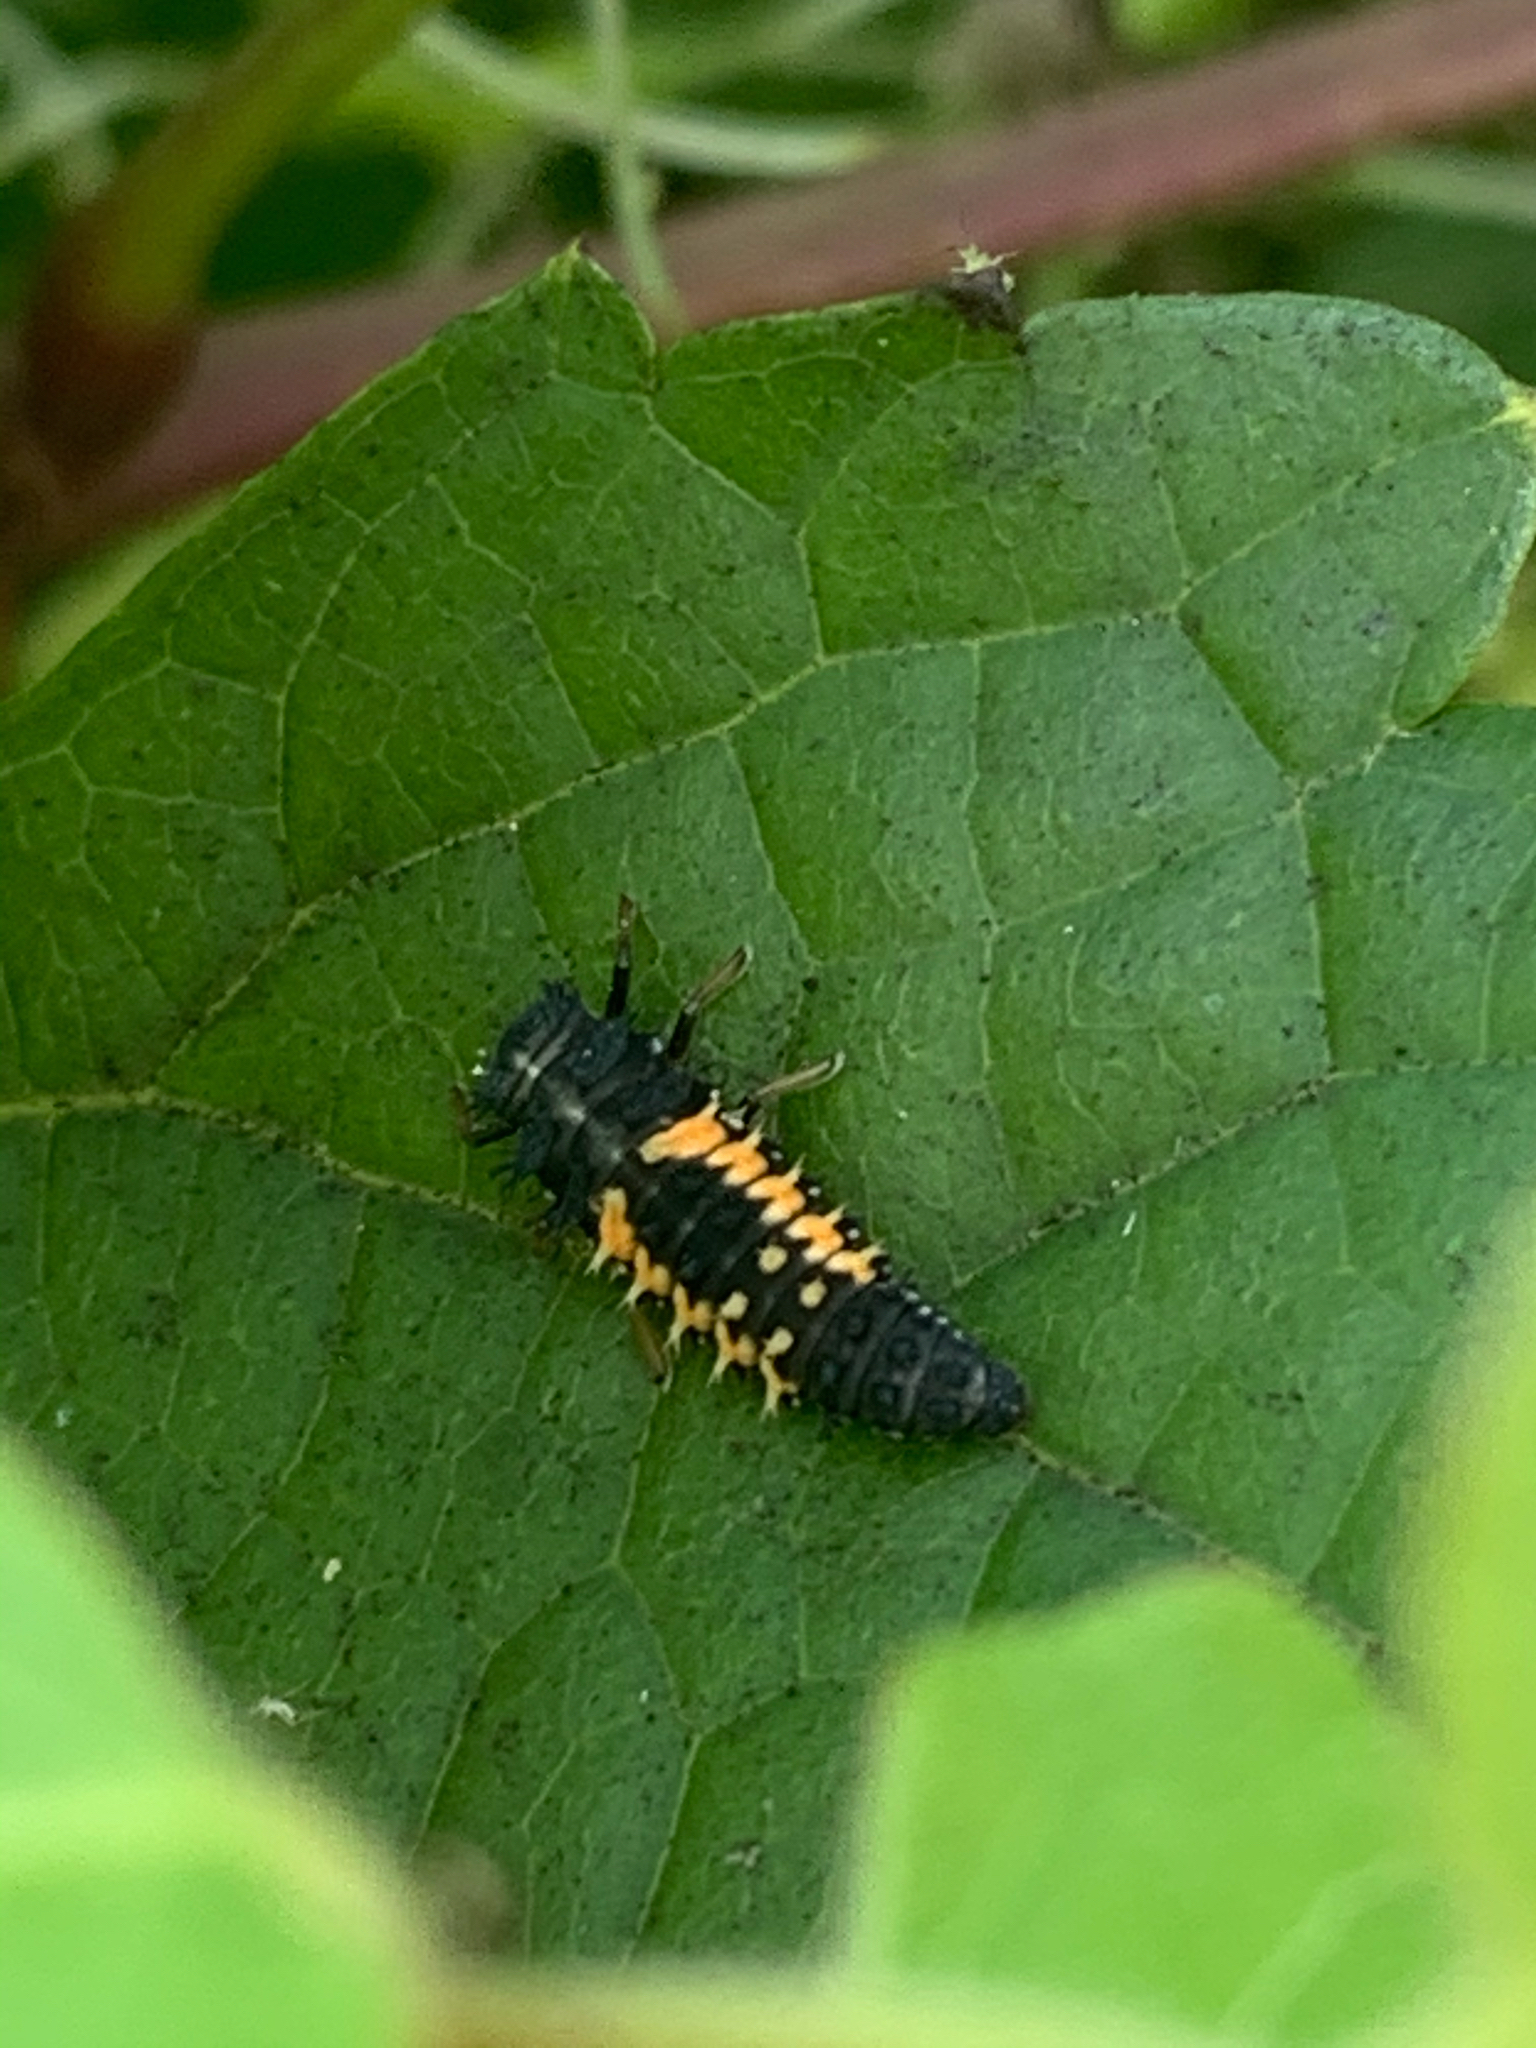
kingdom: Animalia
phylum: Arthropoda
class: Insecta
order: Coleoptera
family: Coccinellidae
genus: Harmonia
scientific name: Harmonia axyridis
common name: Harlequin ladybird
